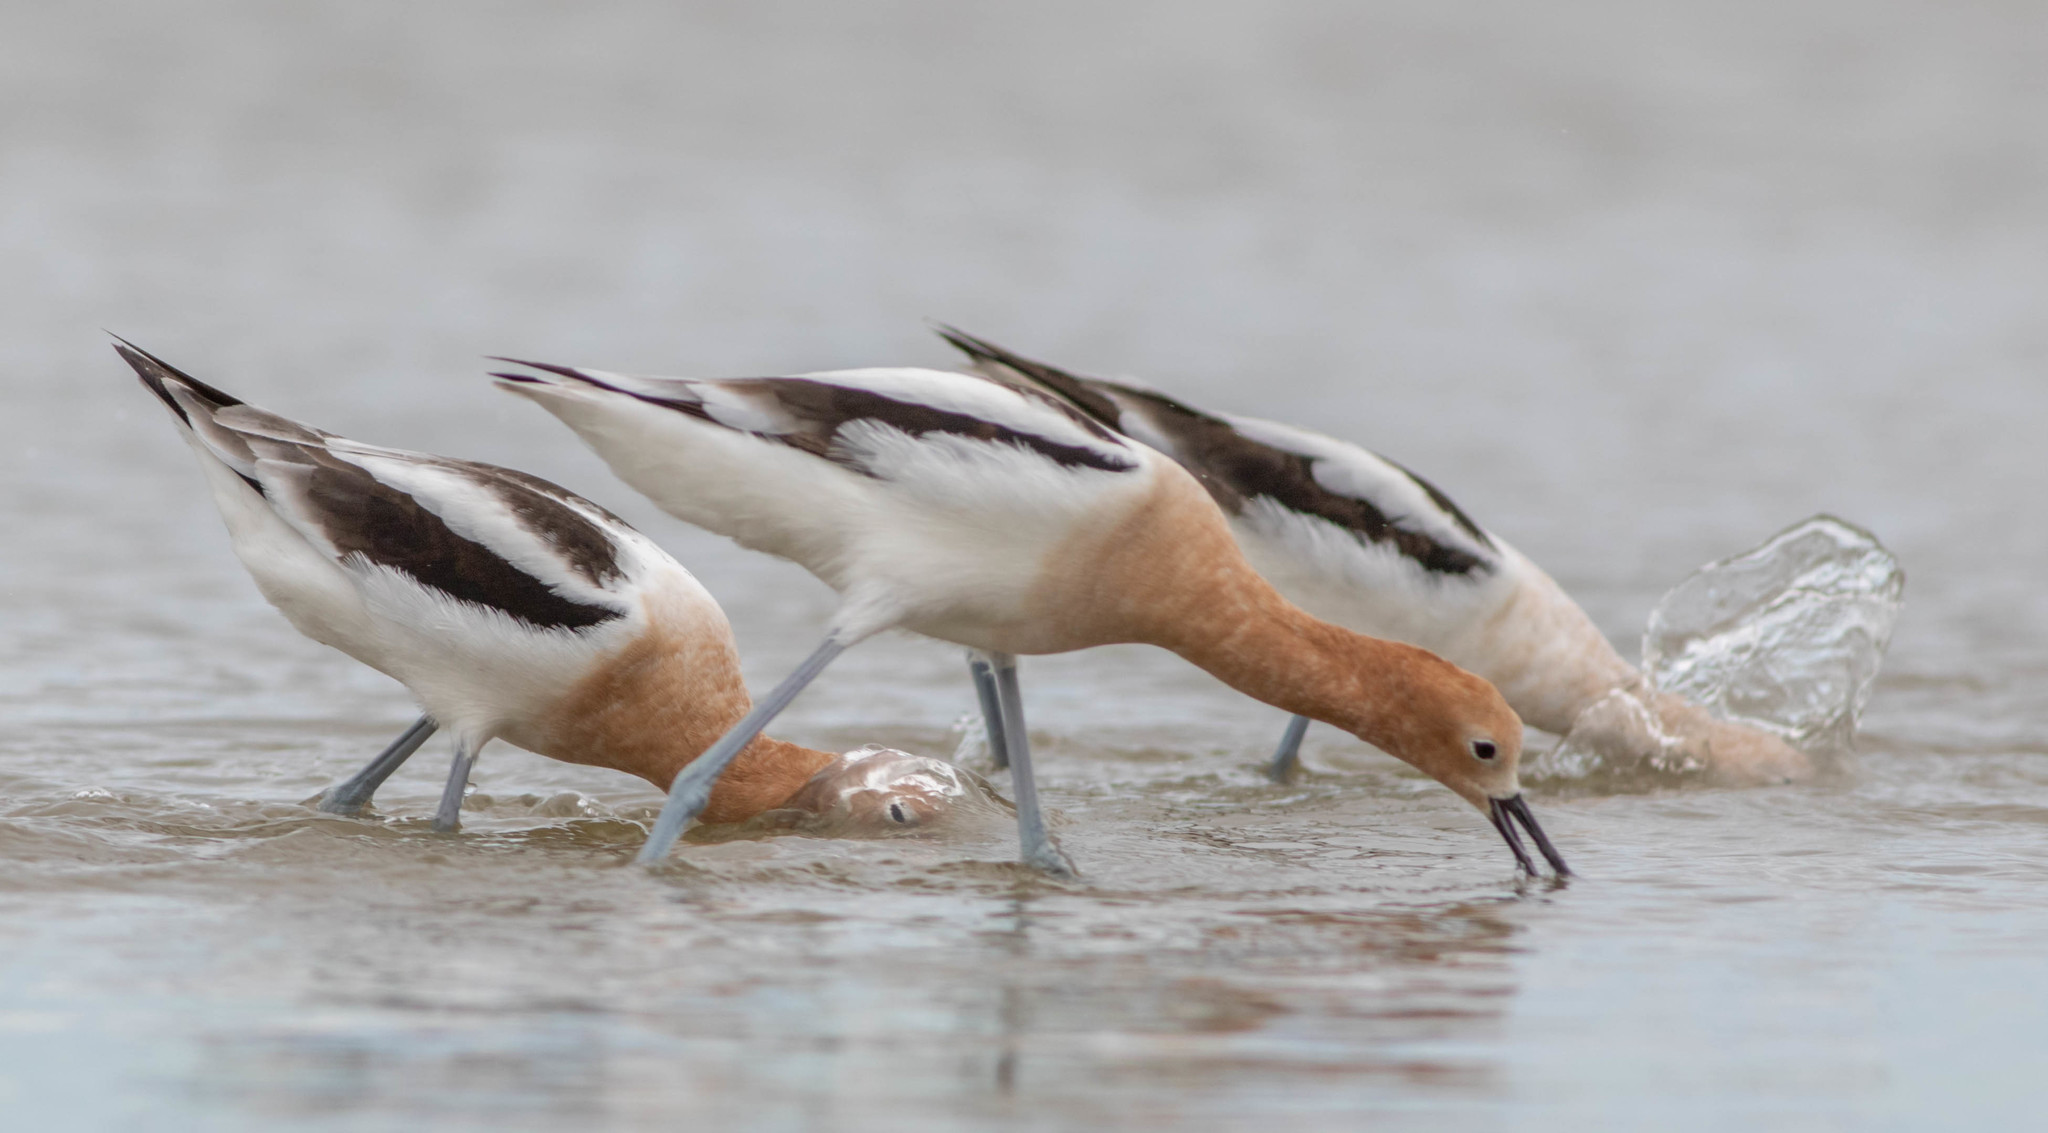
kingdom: Animalia
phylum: Chordata
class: Aves
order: Charadriiformes
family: Recurvirostridae
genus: Recurvirostra
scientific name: Recurvirostra americana
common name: American avocet
